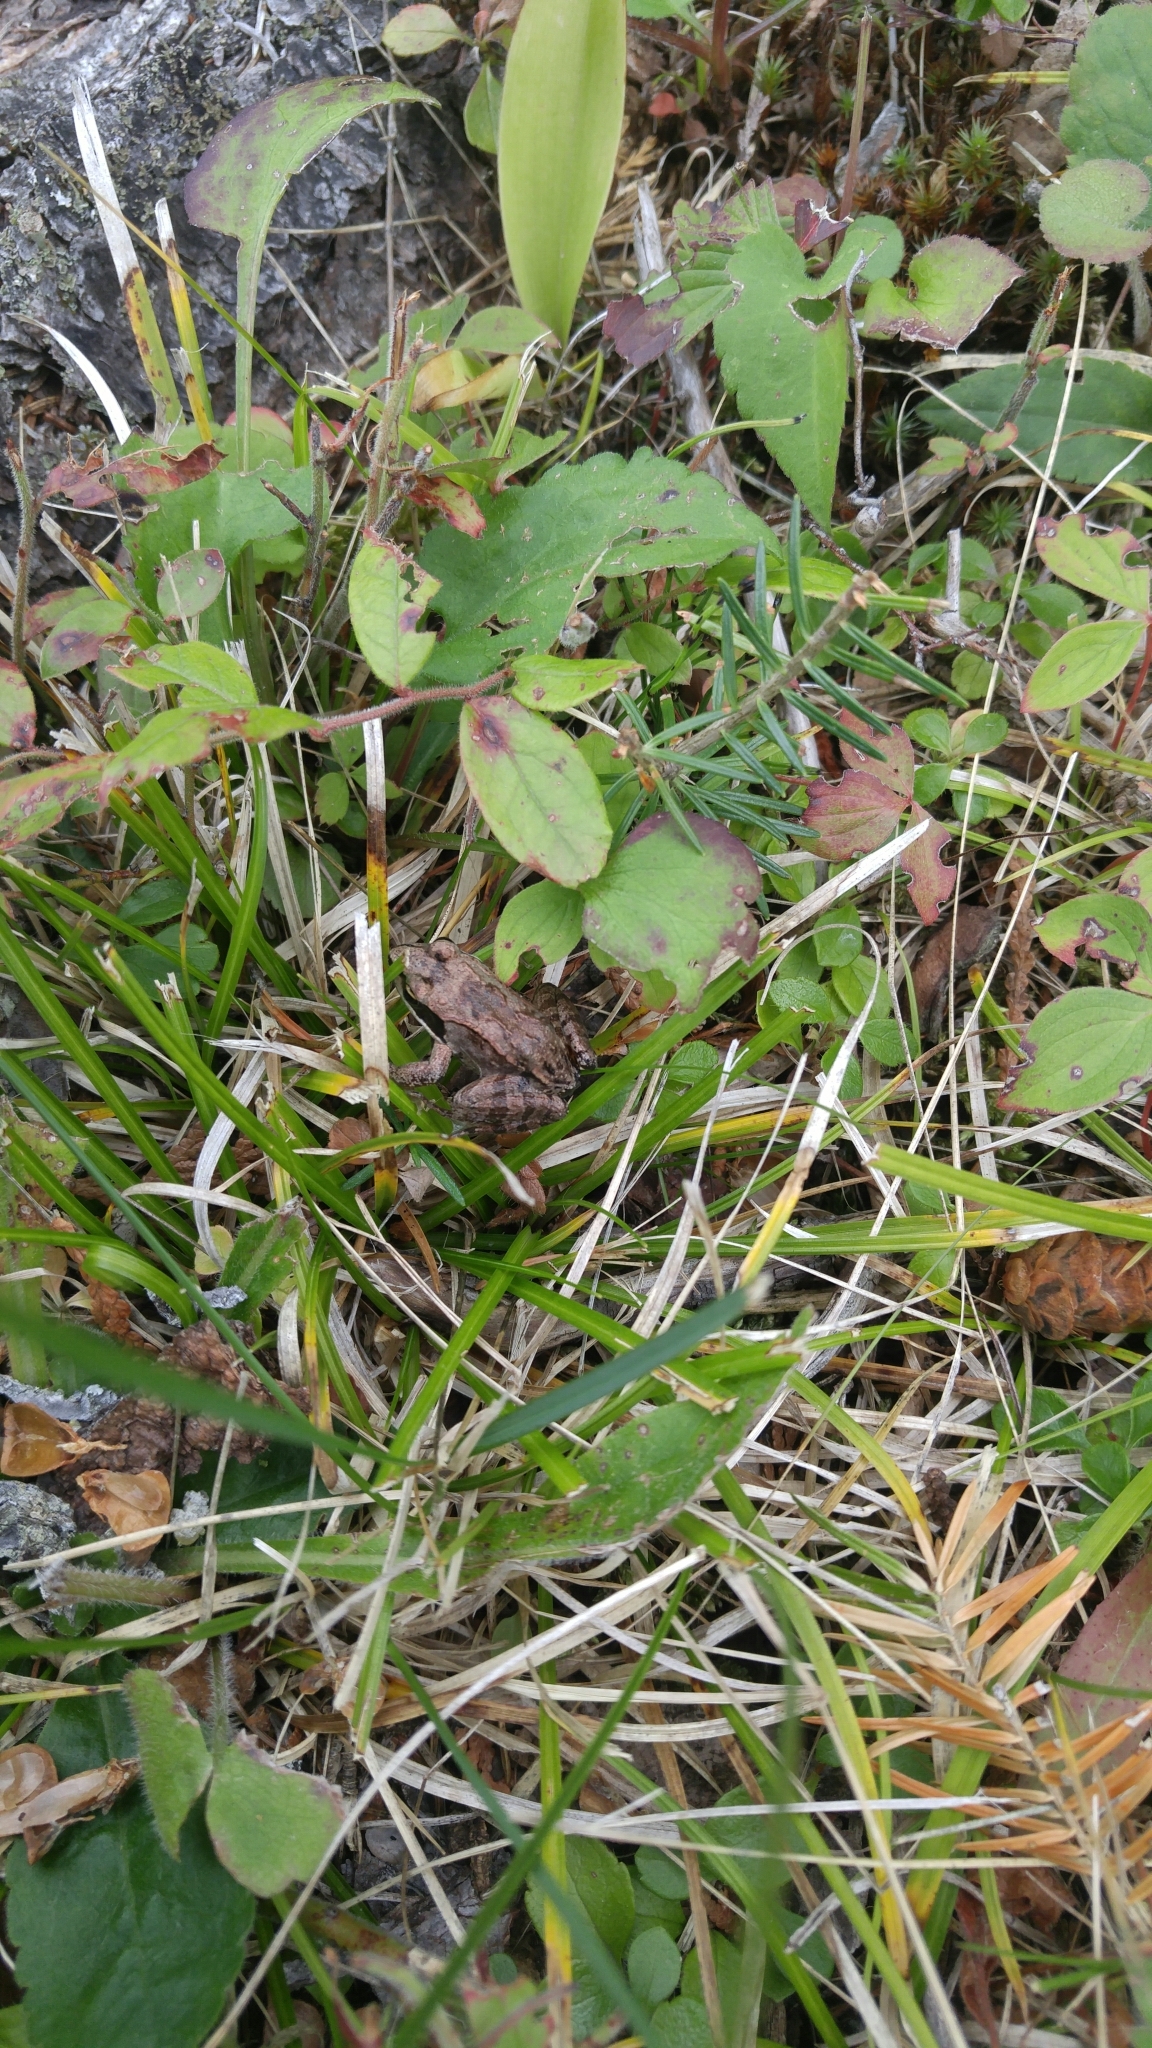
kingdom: Animalia
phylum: Chordata
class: Amphibia
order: Anura
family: Ranidae
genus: Lithobates
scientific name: Lithobates sylvaticus
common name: Wood frog
